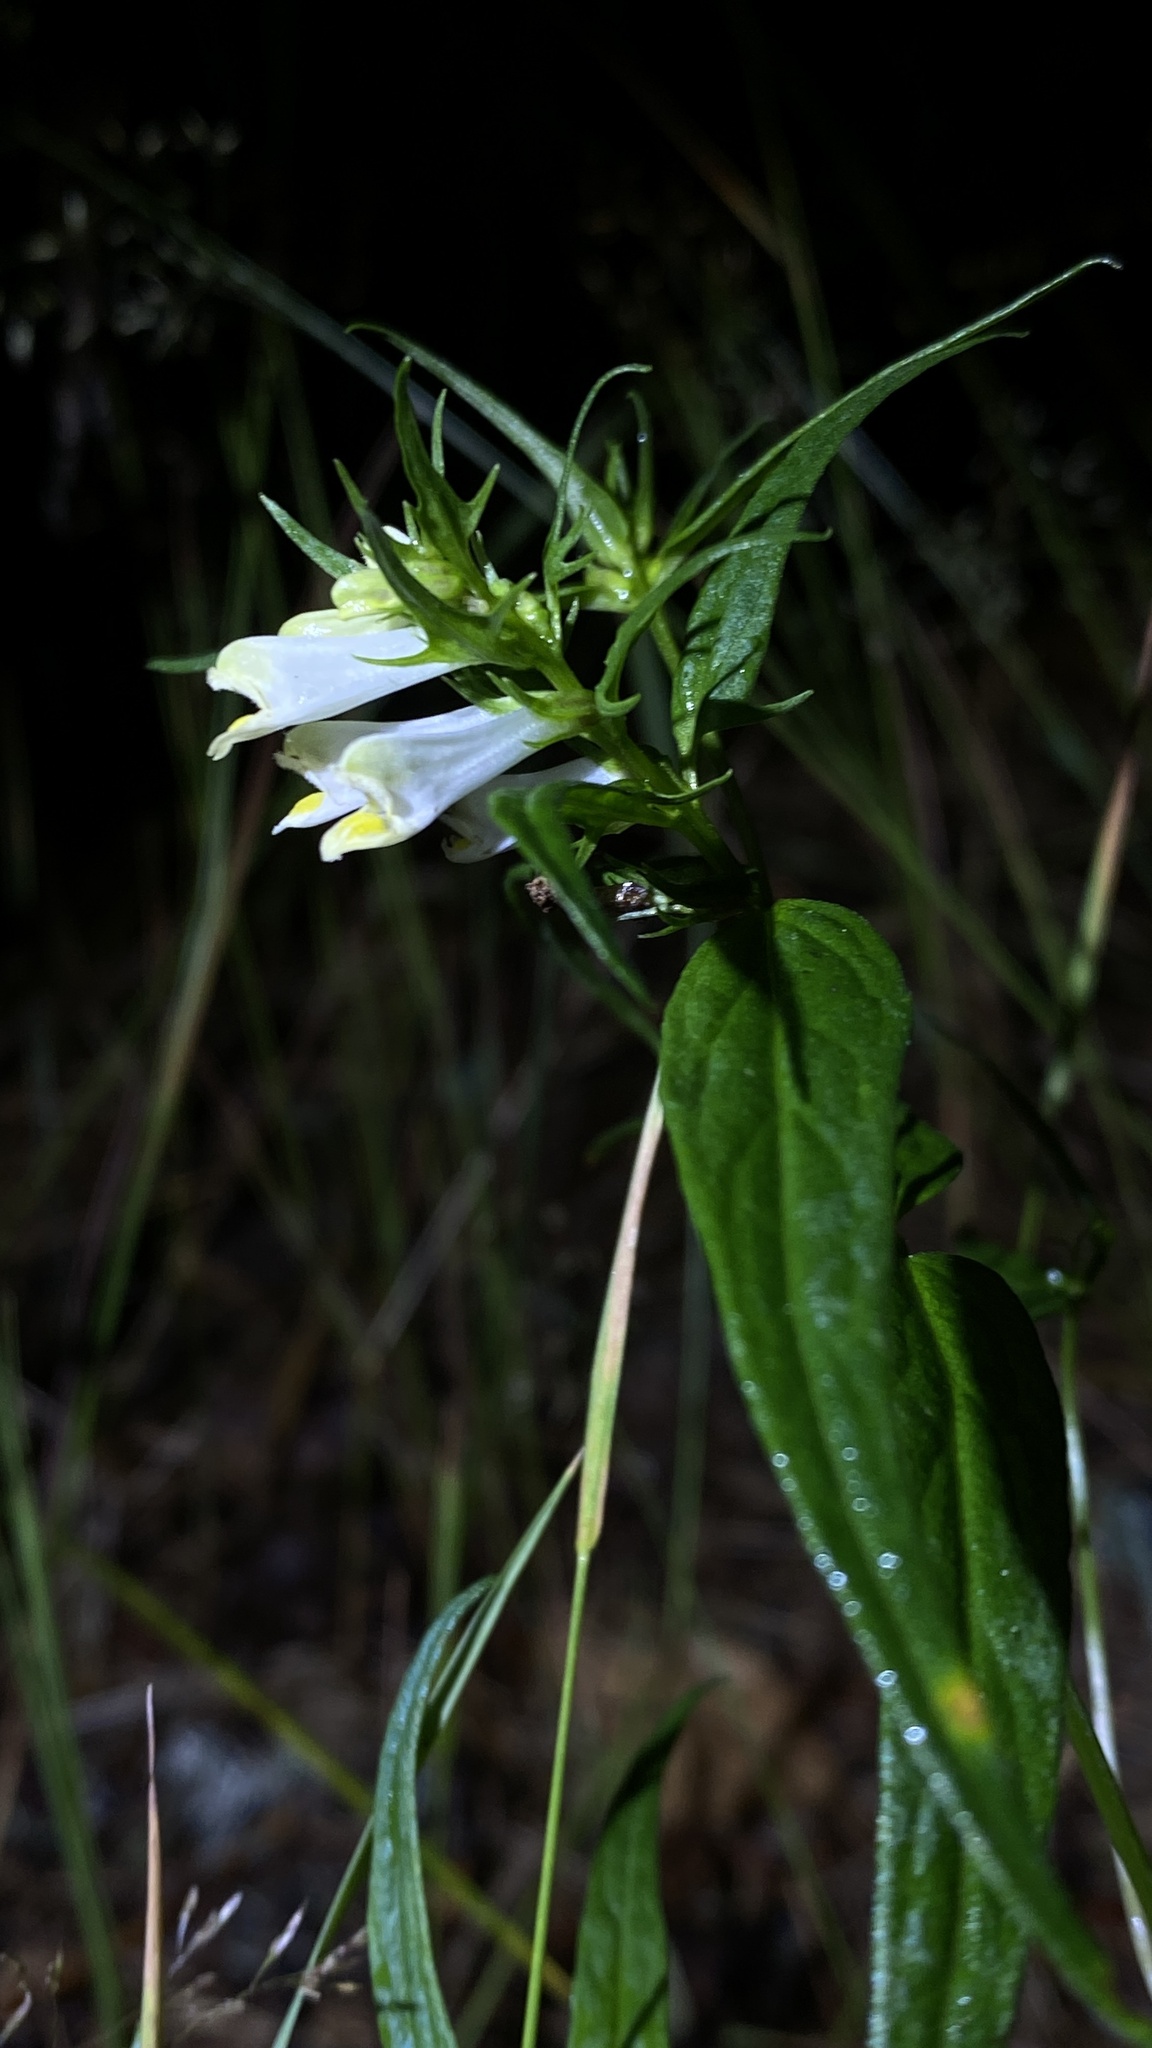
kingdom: Plantae
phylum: Tracheophyta
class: Magnoliopsida
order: Lamiales
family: Orobanchaceae
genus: Melampyrum
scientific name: Melampyrum pratense
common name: Common cow-wheat
